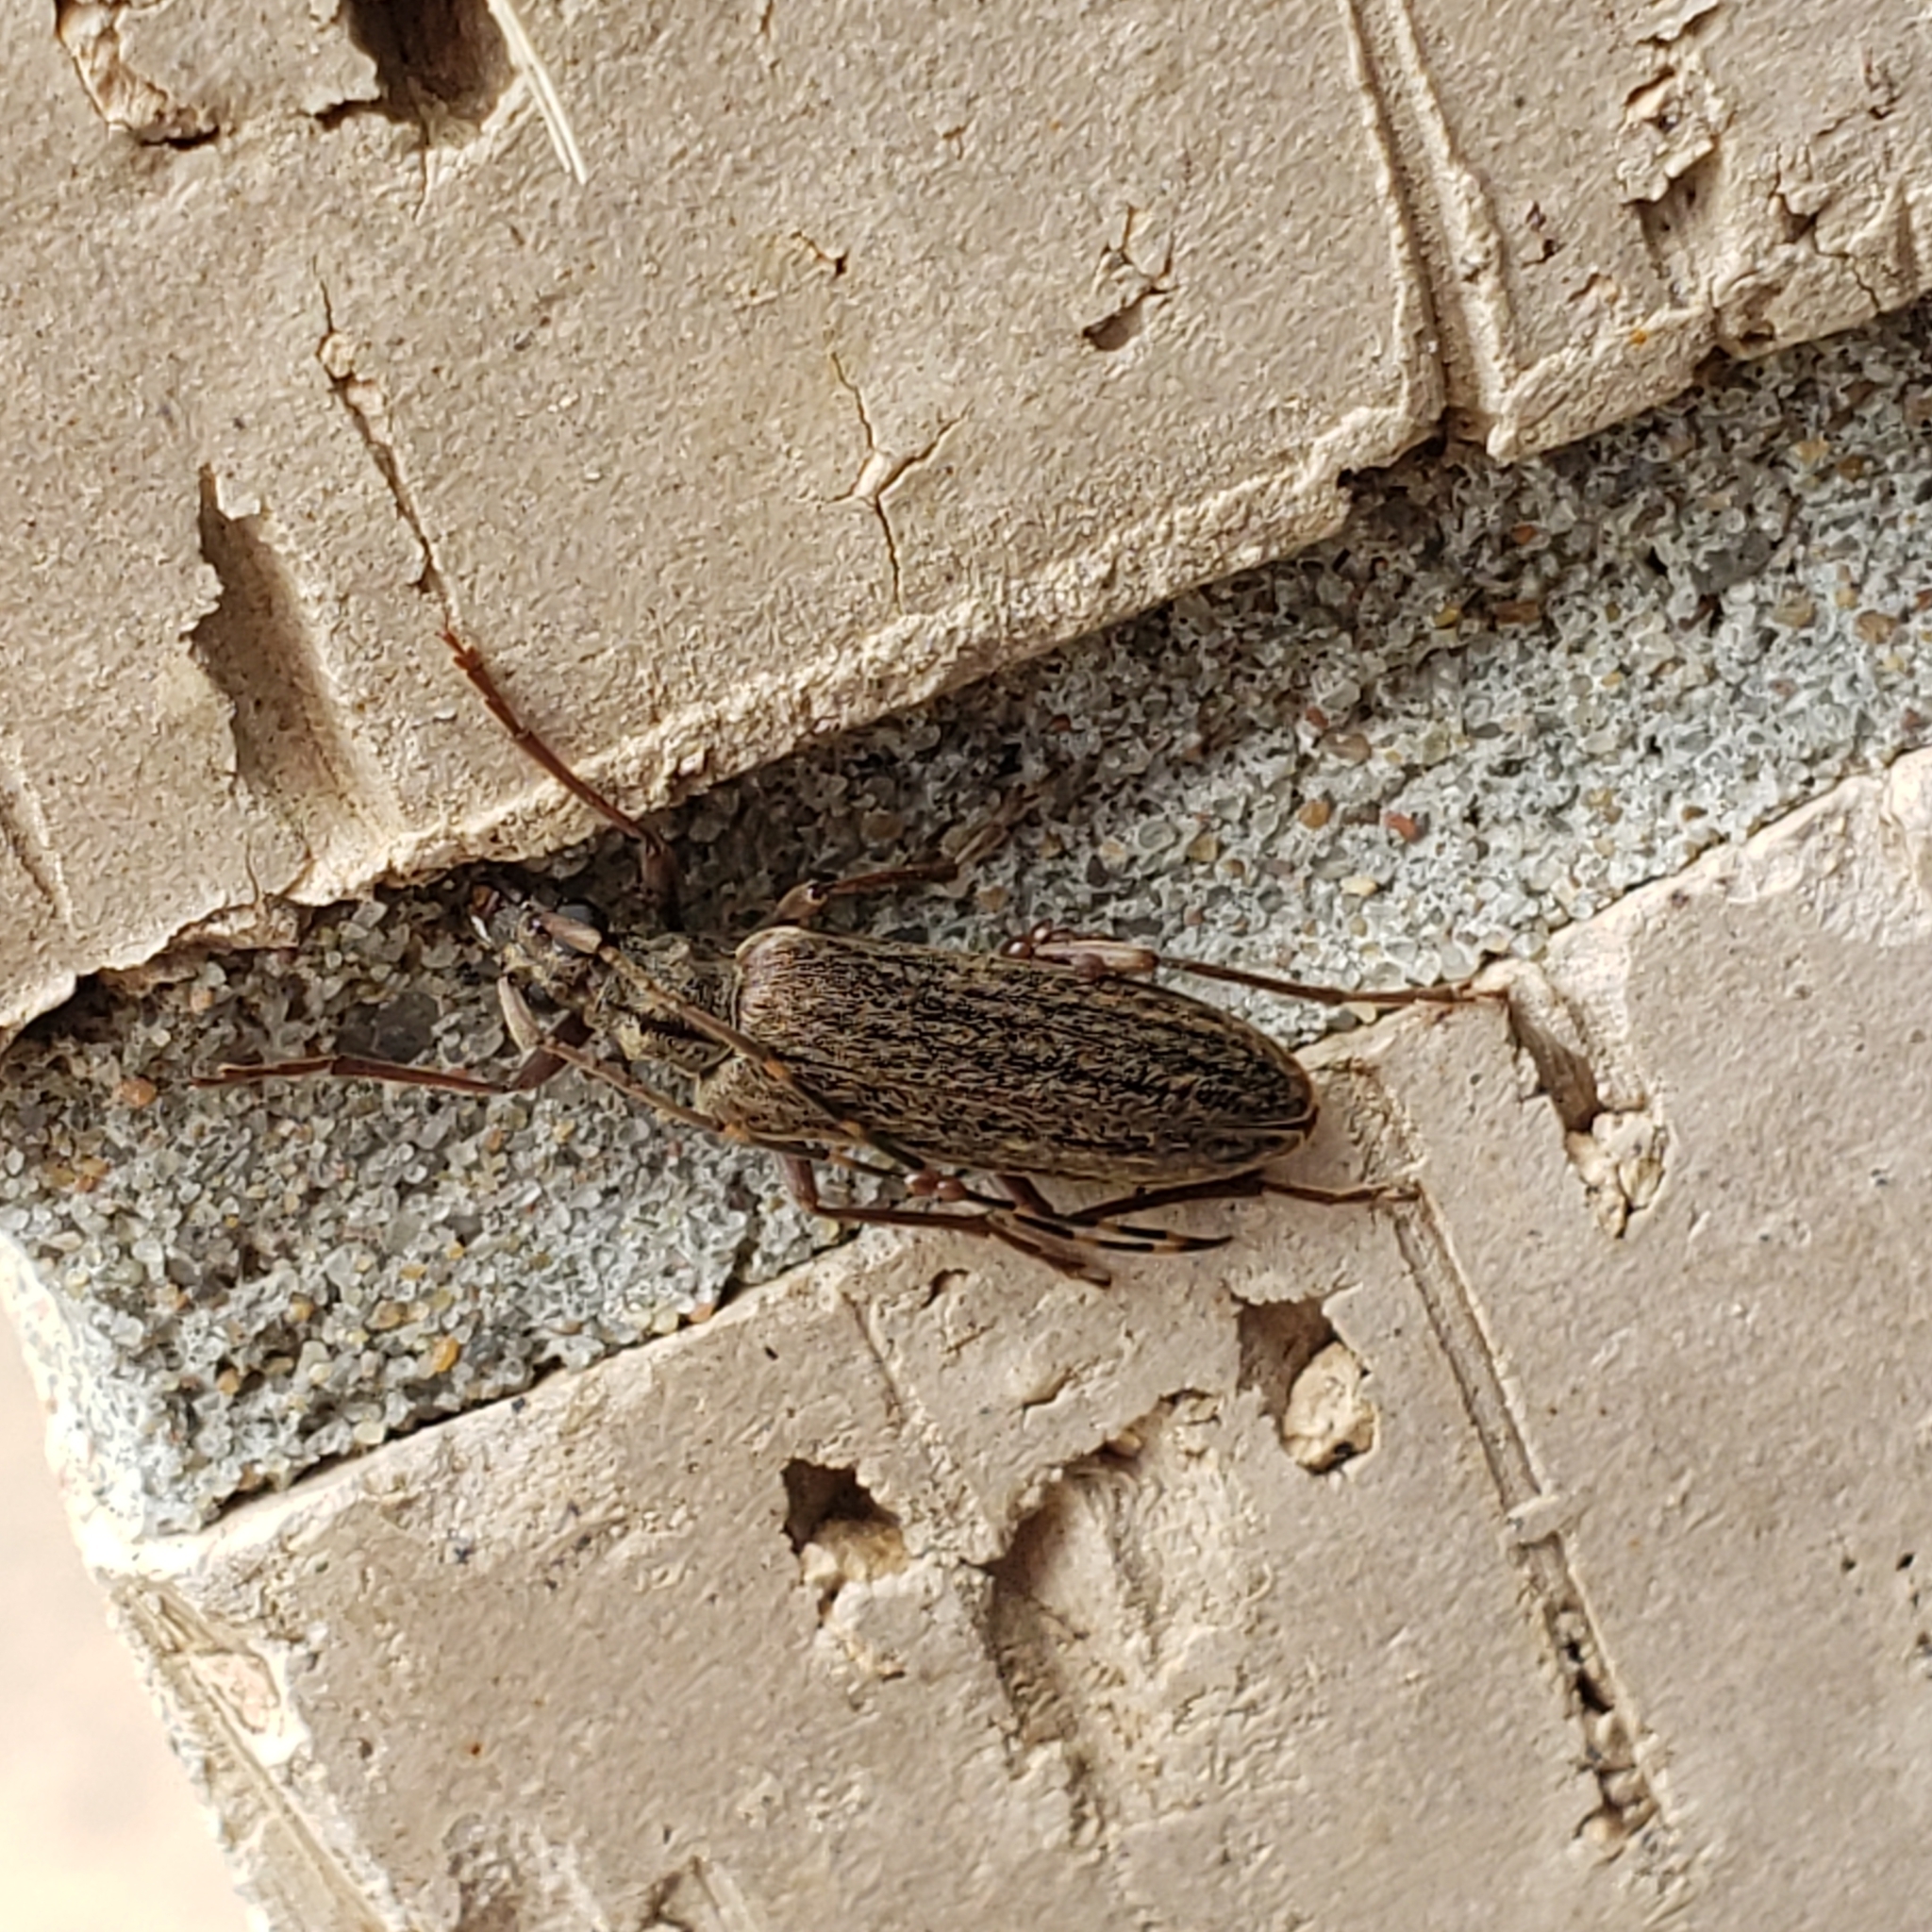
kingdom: Animalia
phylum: Arthropoda
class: Insecta
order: Coleoptera
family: Cerambycidae
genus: Centrodera
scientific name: Centrodera sublineata
